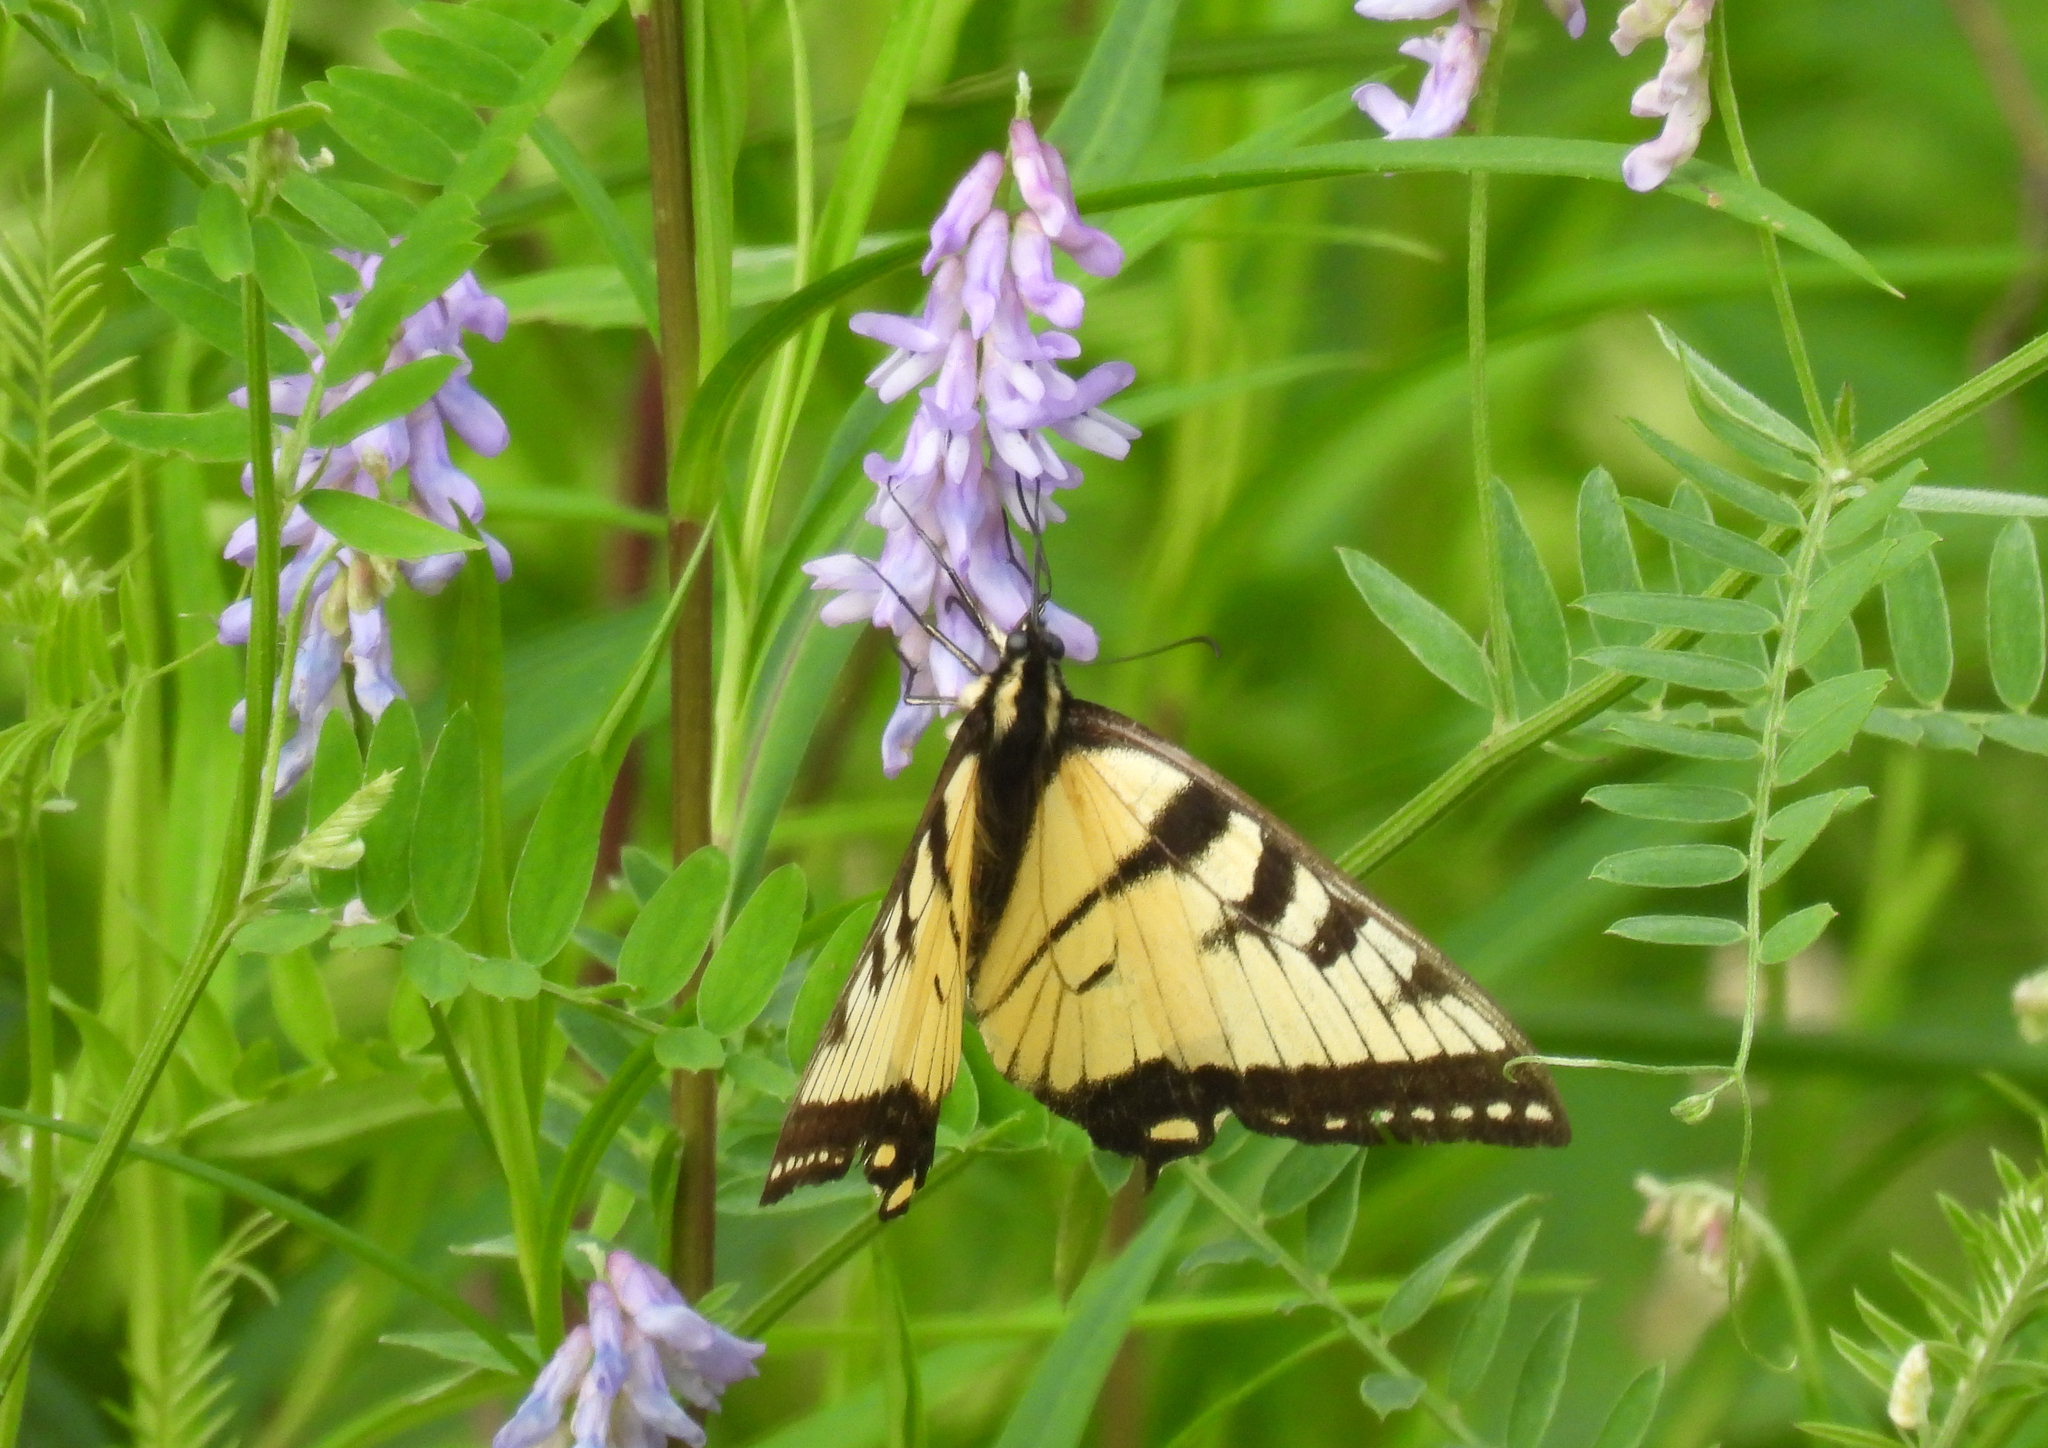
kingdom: Animalia
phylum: Arthropoda
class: Insecta
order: Lepidoptera
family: Papilionidae
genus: Papilio
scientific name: Papilio glaucus
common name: Tiger swallowtail
